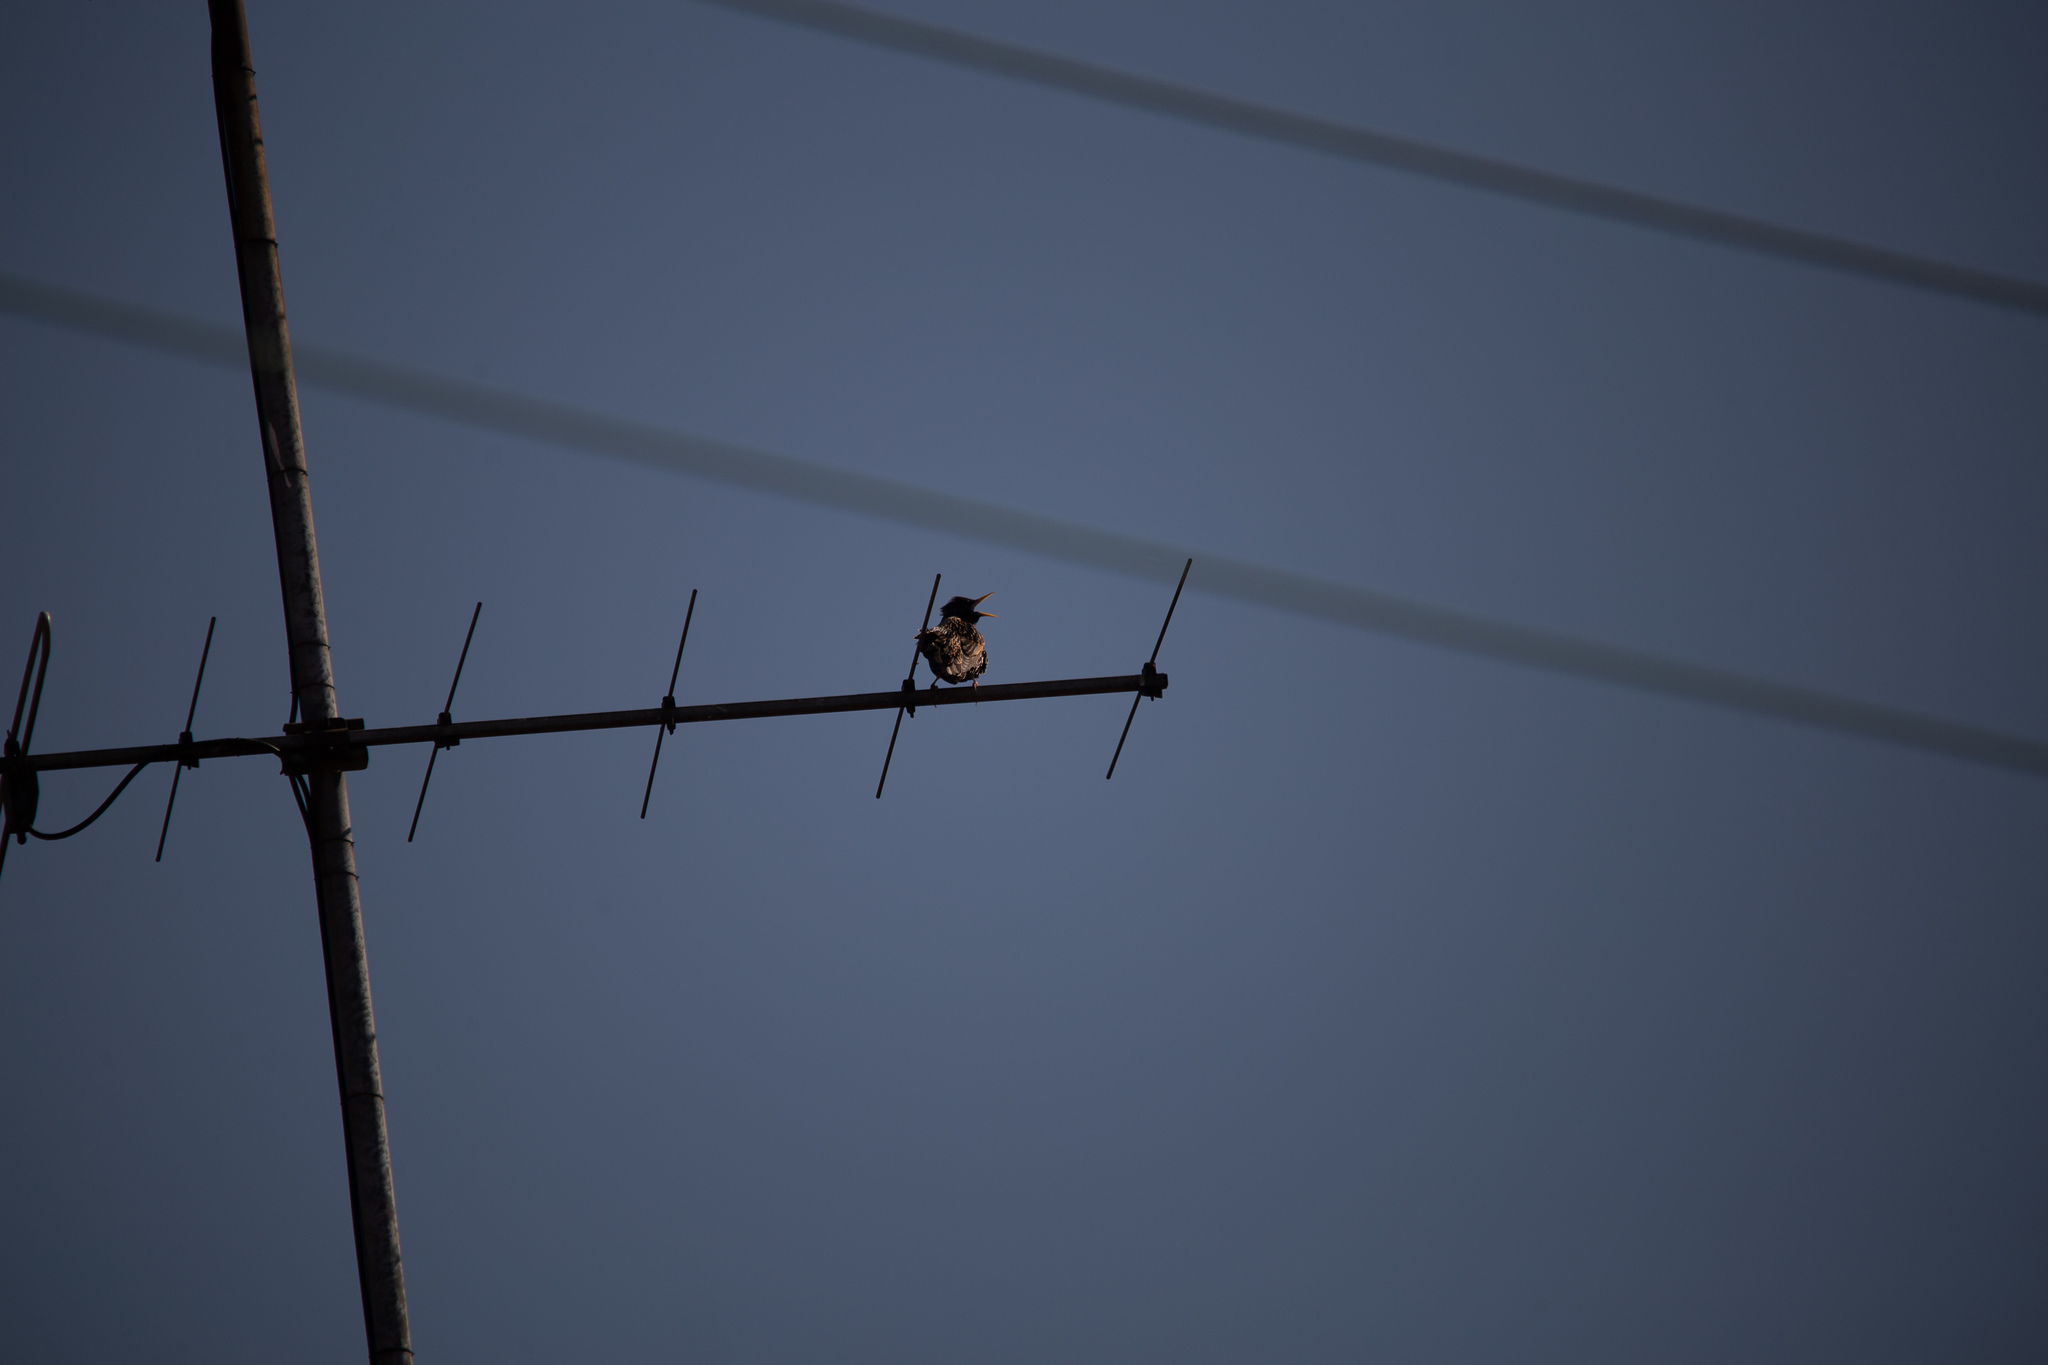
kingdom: Animalia
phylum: Chordata
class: Aves
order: Passeriformes
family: Sturnidae
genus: Sturnus
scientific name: Sturnus vulgaris
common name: Common starling
